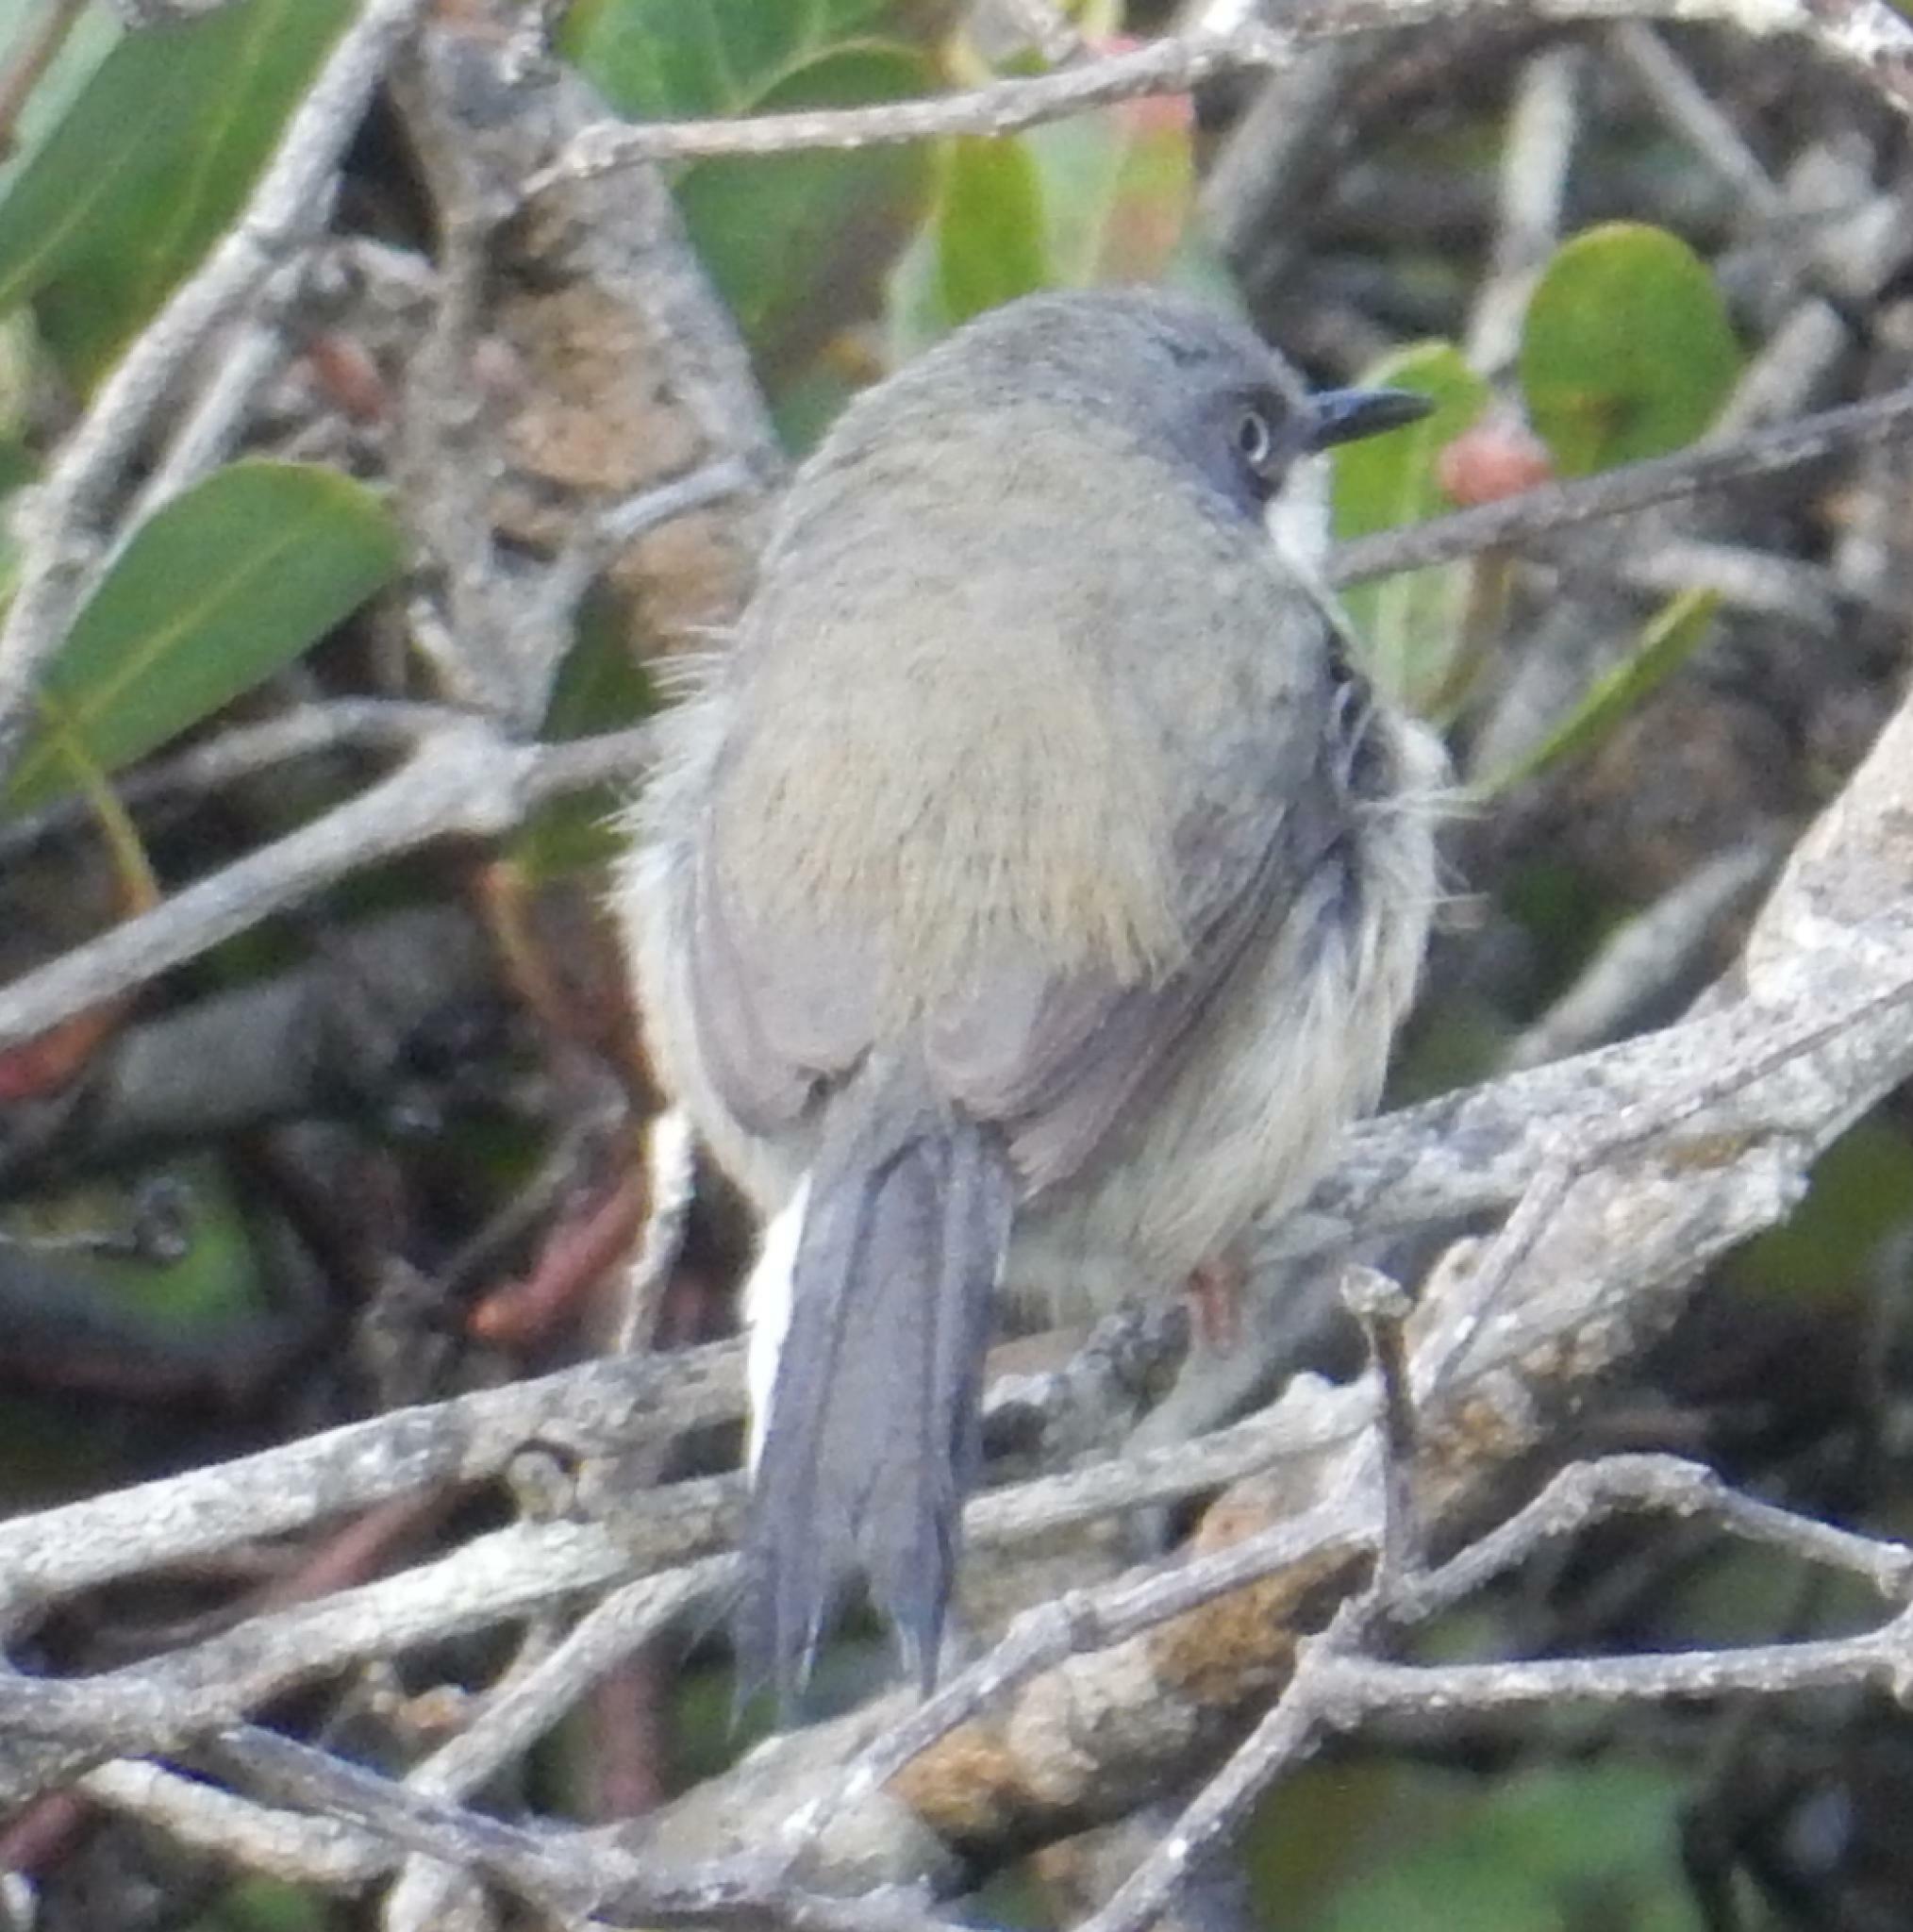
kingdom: Animalia
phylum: Chordata
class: Aves
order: Passeriformes
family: Cisticolidae
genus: Apalis
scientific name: Apalis thoracica
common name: Bar-throated apalis
